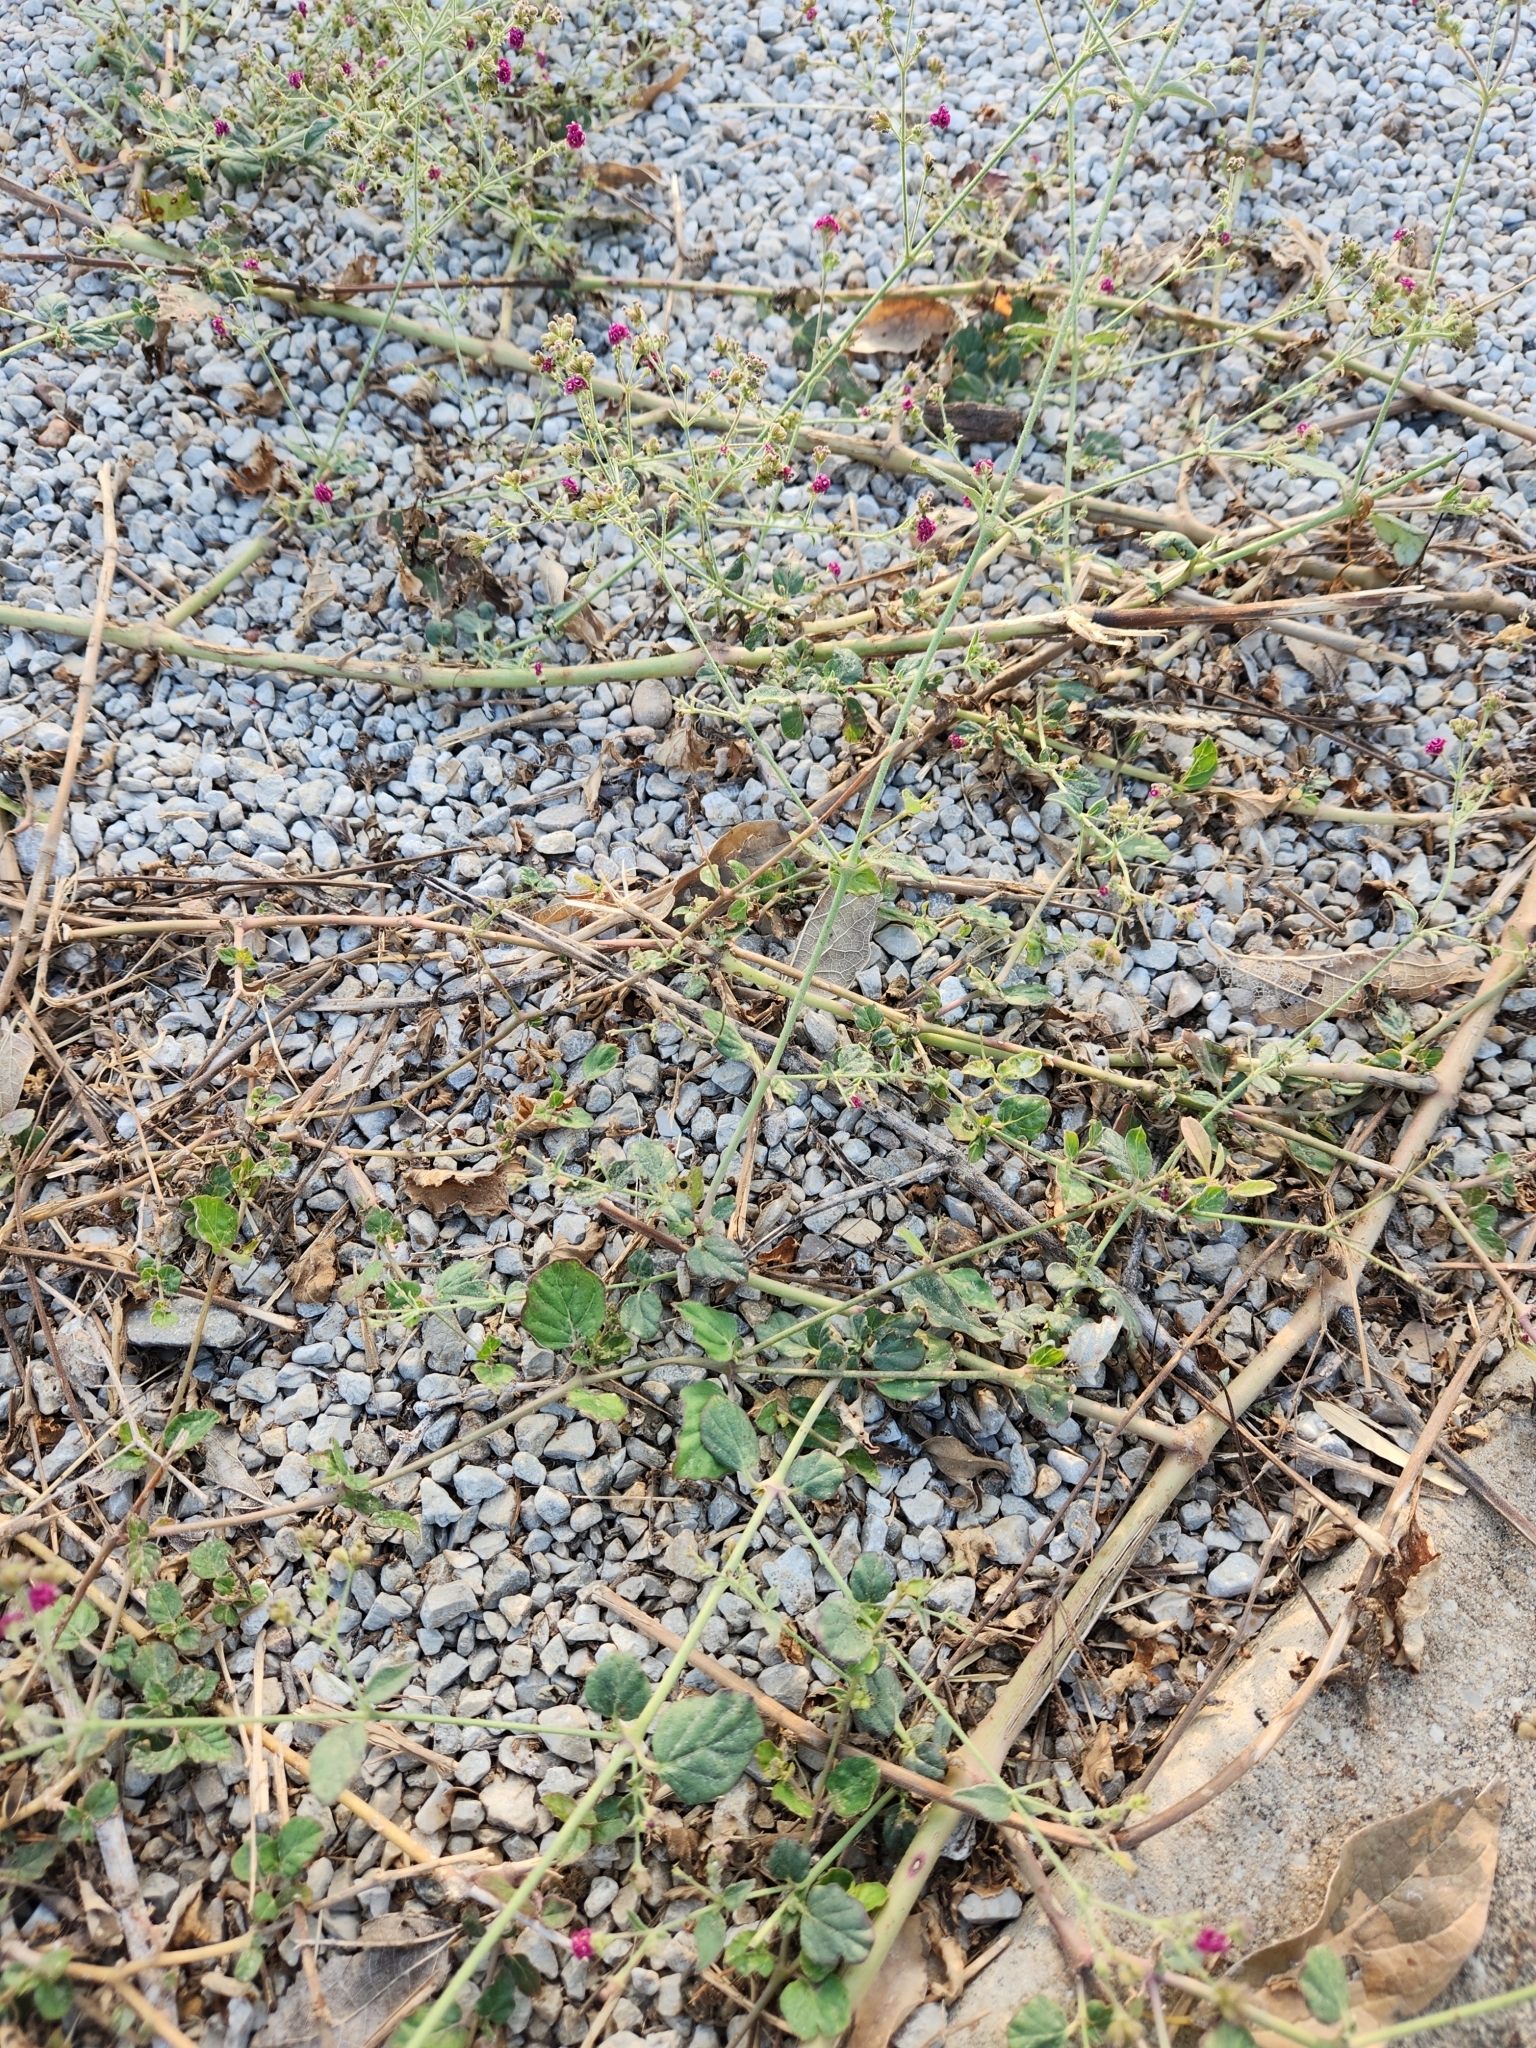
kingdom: Plantae
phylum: Tracheophyta
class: Magnoliopsida
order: Caryophyllales
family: Nyctaginaceae
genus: Boerhavia
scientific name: Boerhavia coccinea
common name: Scarlet spiderling
